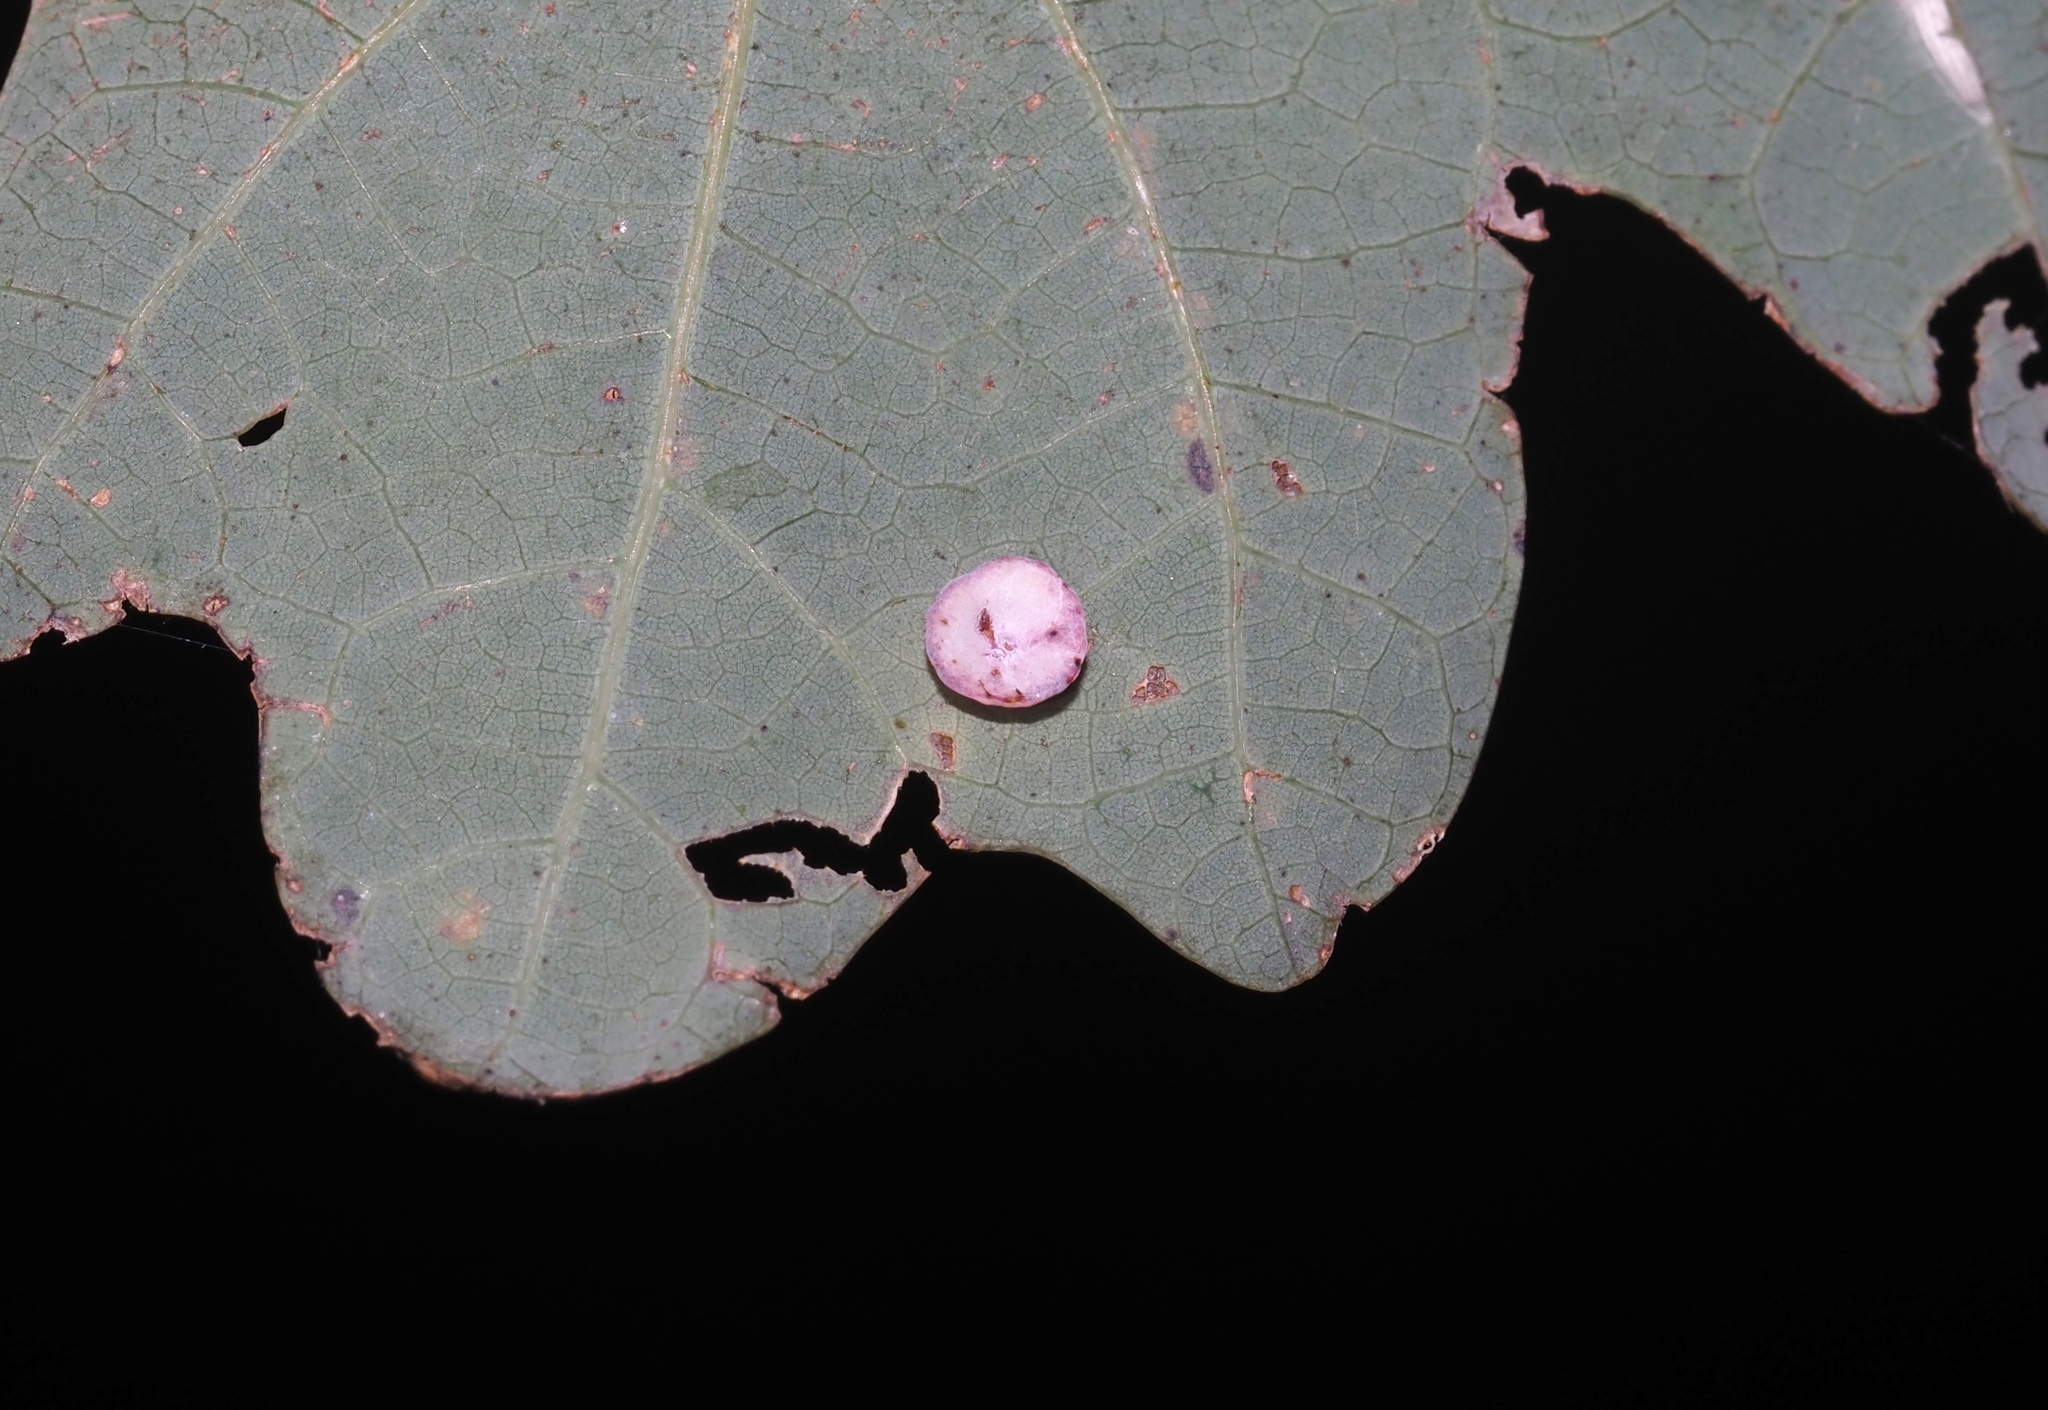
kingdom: Animalia
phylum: Arthropoda
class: Insecta
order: Hymenoptera
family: Cynipidae
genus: Phylloteras
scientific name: Phylloteras poculum
